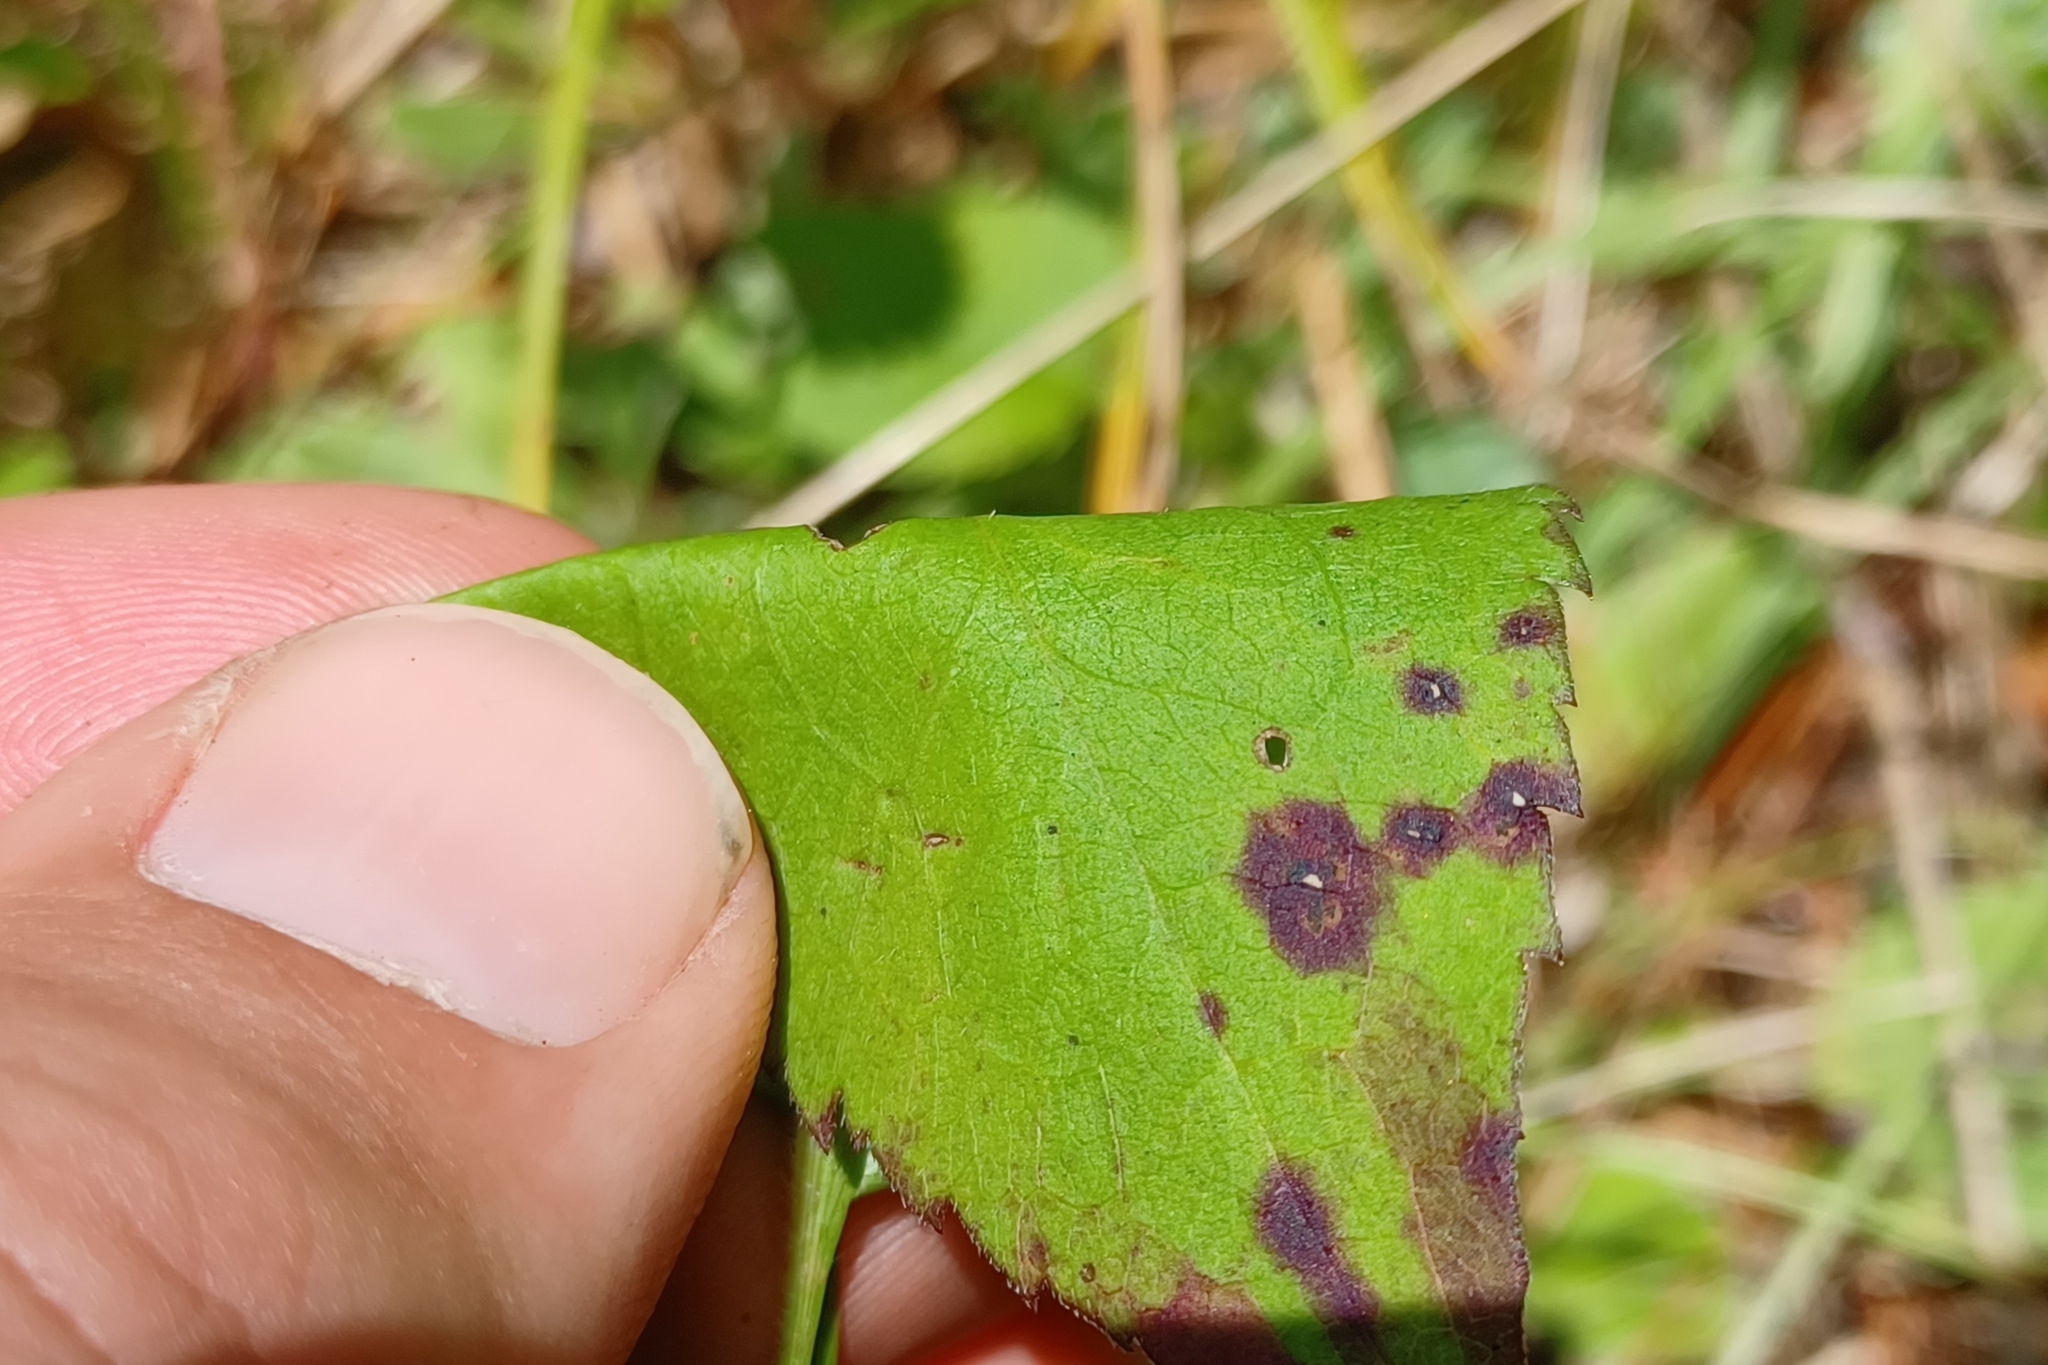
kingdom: Plantae
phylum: Tracheophyta
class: Magnoliopsida
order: Asterales
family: Asteraceae
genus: Symphyotrichum
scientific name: Symphyotrichum ciliolatum
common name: Fringed blue aster
